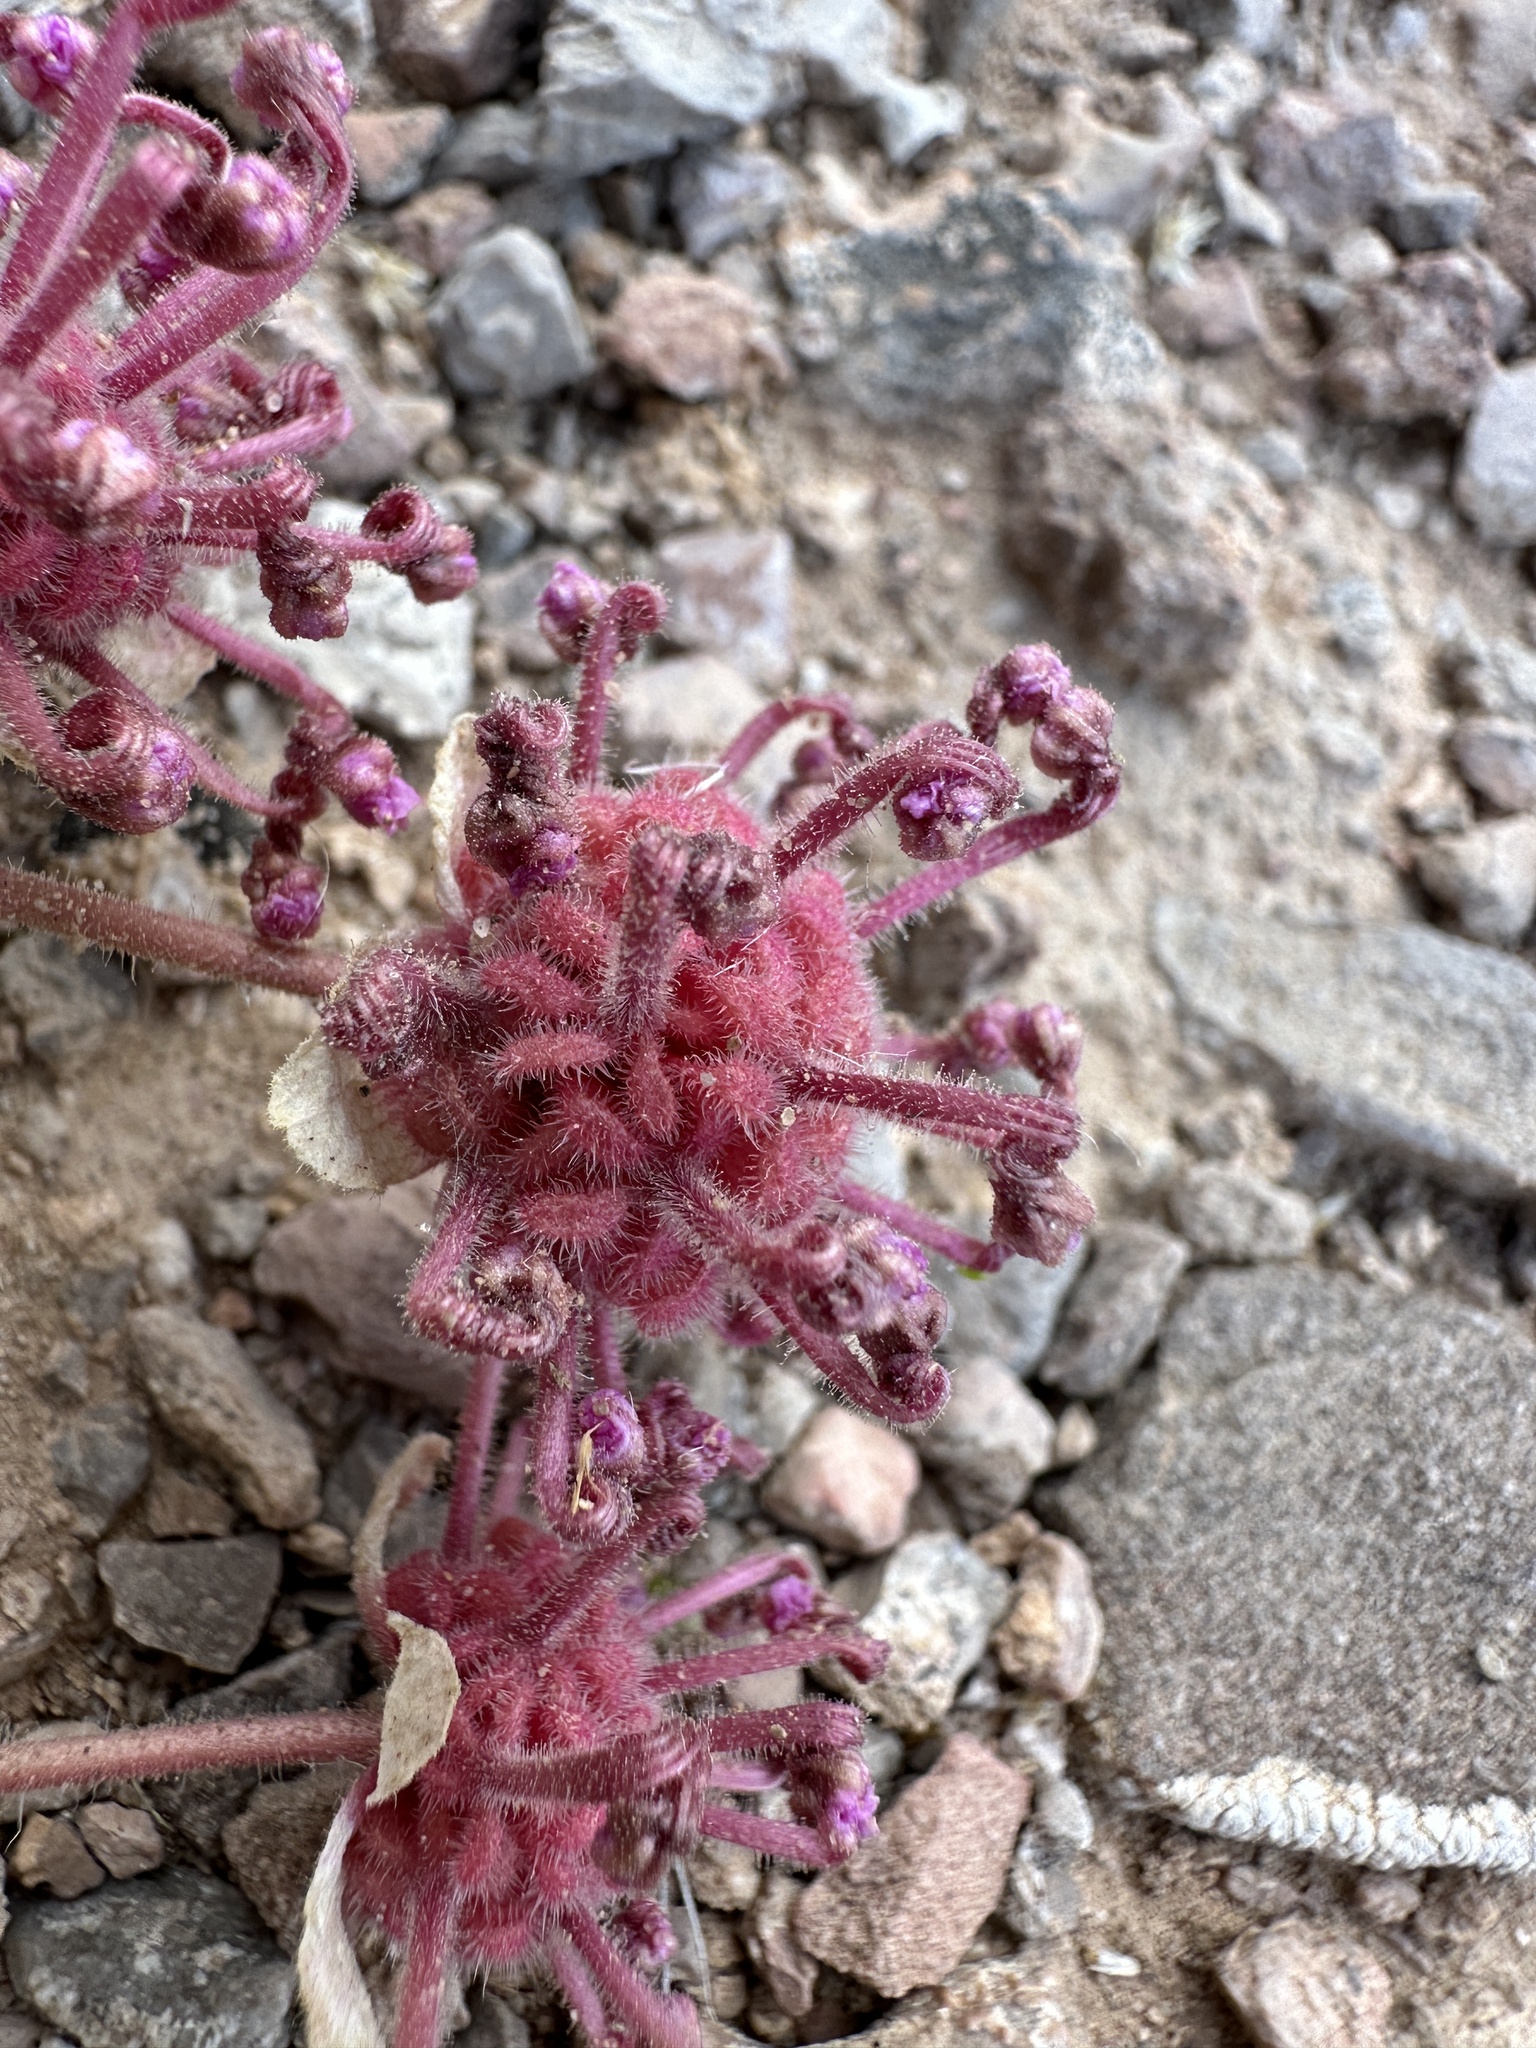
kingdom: Plantae
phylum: Tracheophyta
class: Magnoliopsida
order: Caryophyllales
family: Nyctaginaceae
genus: Abronia
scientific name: Abronia nana
